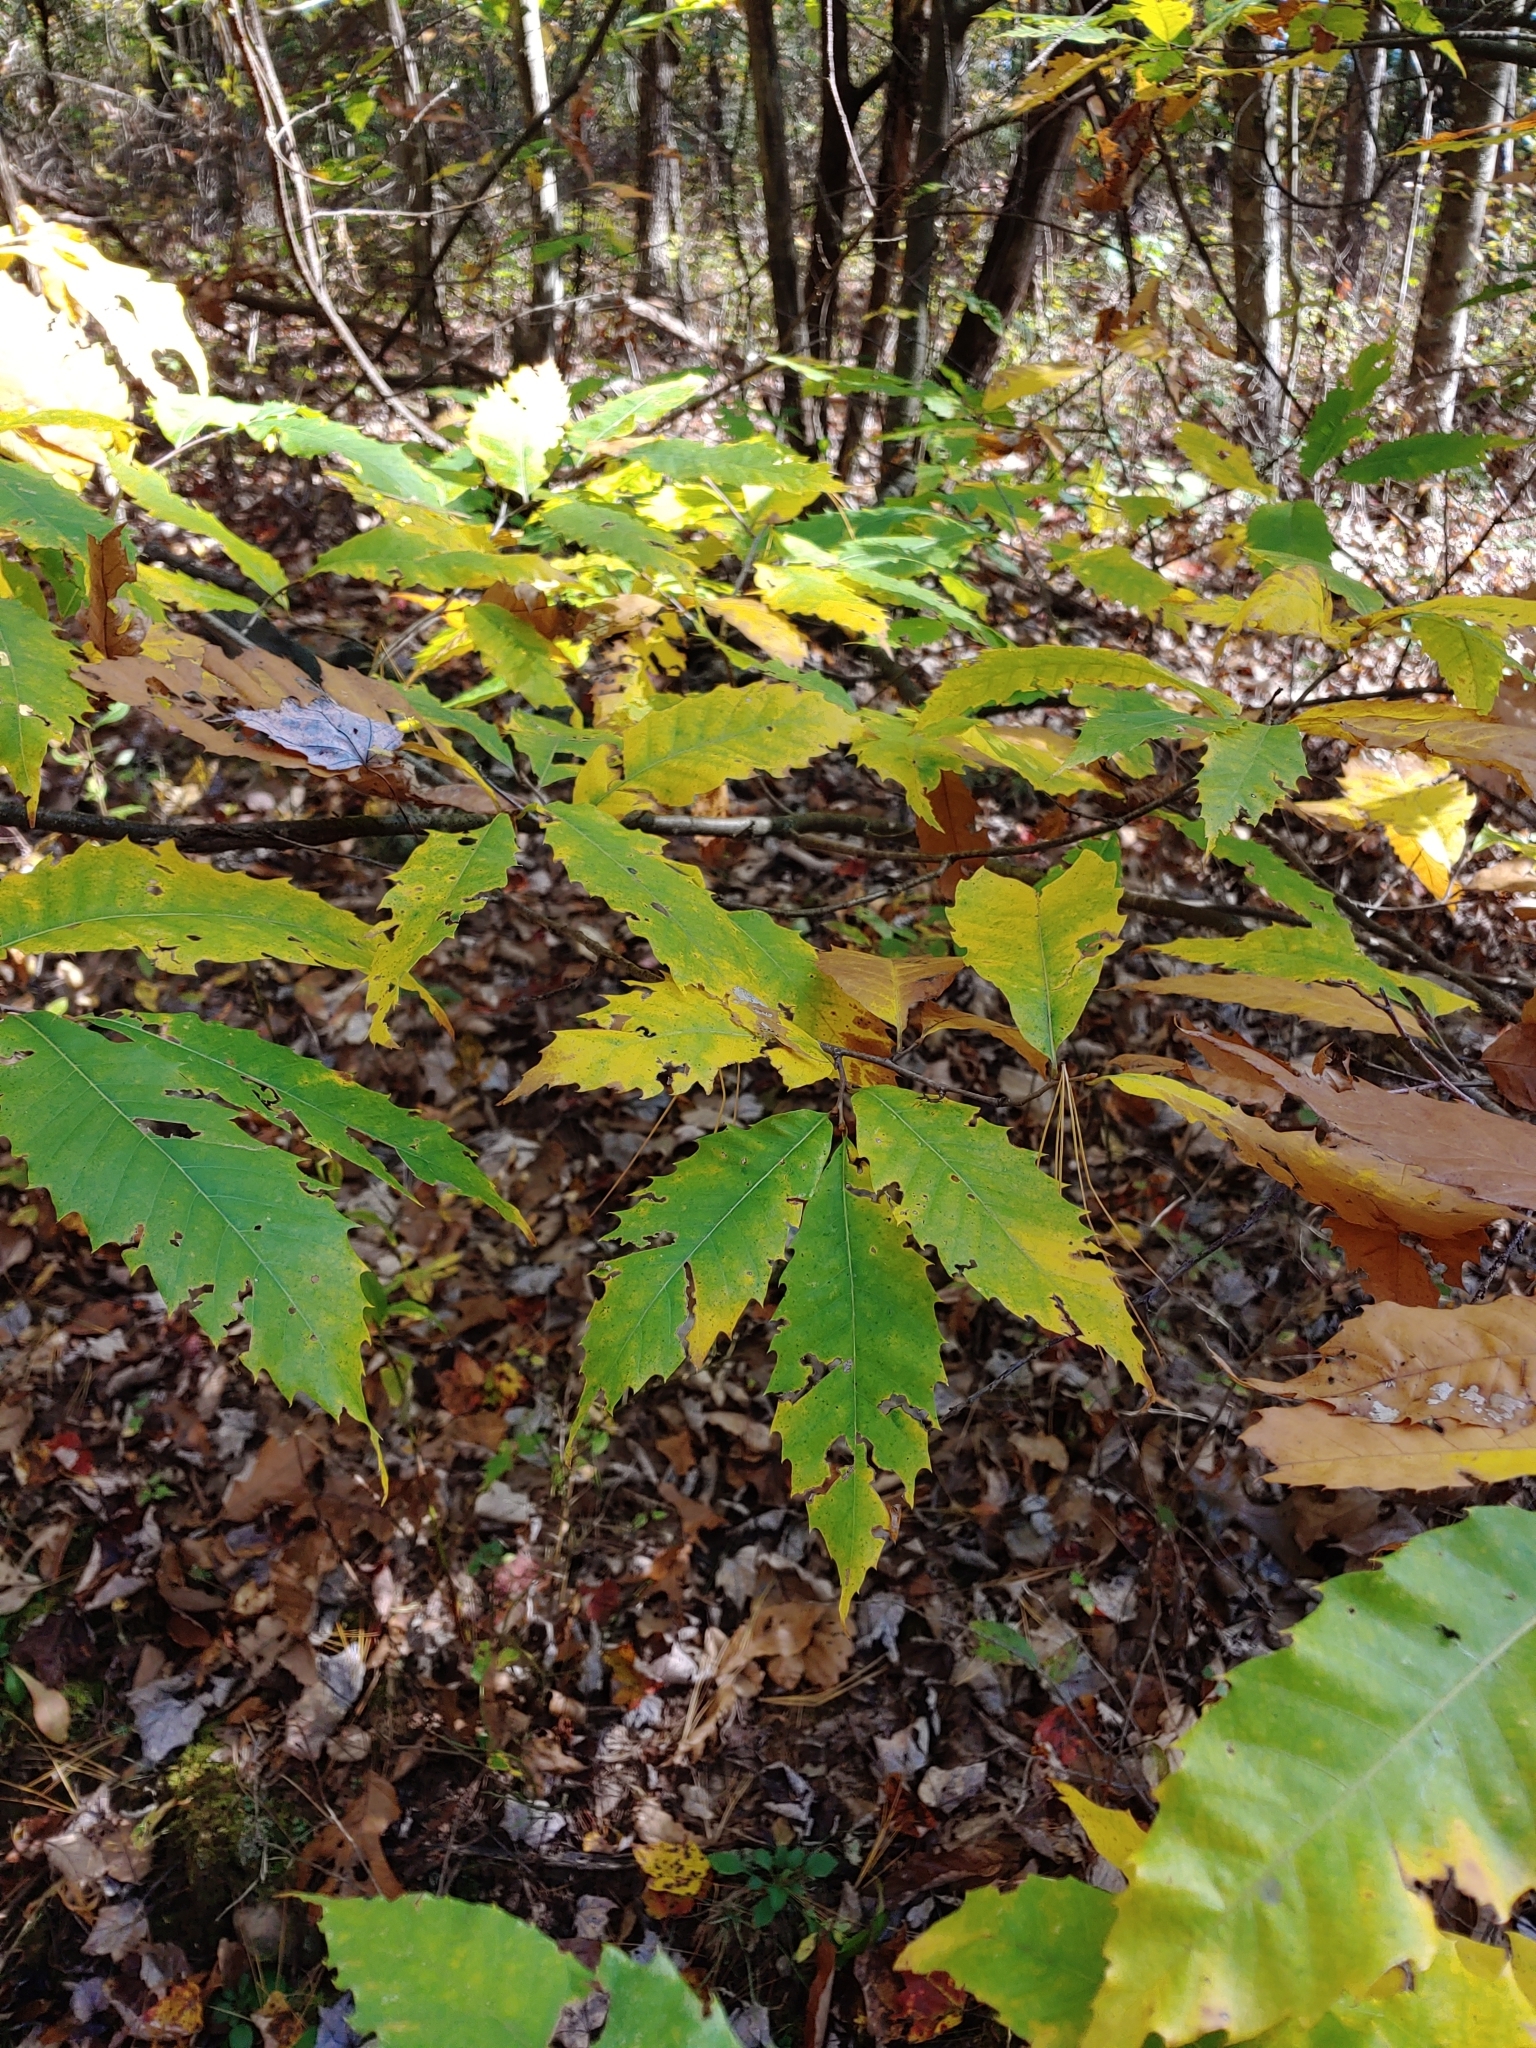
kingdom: Plantae
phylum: Tracheophyta
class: Magnoliopsida
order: Fagales
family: Fagaceae
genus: Castanea
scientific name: Castanea dentata
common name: American chestnut
